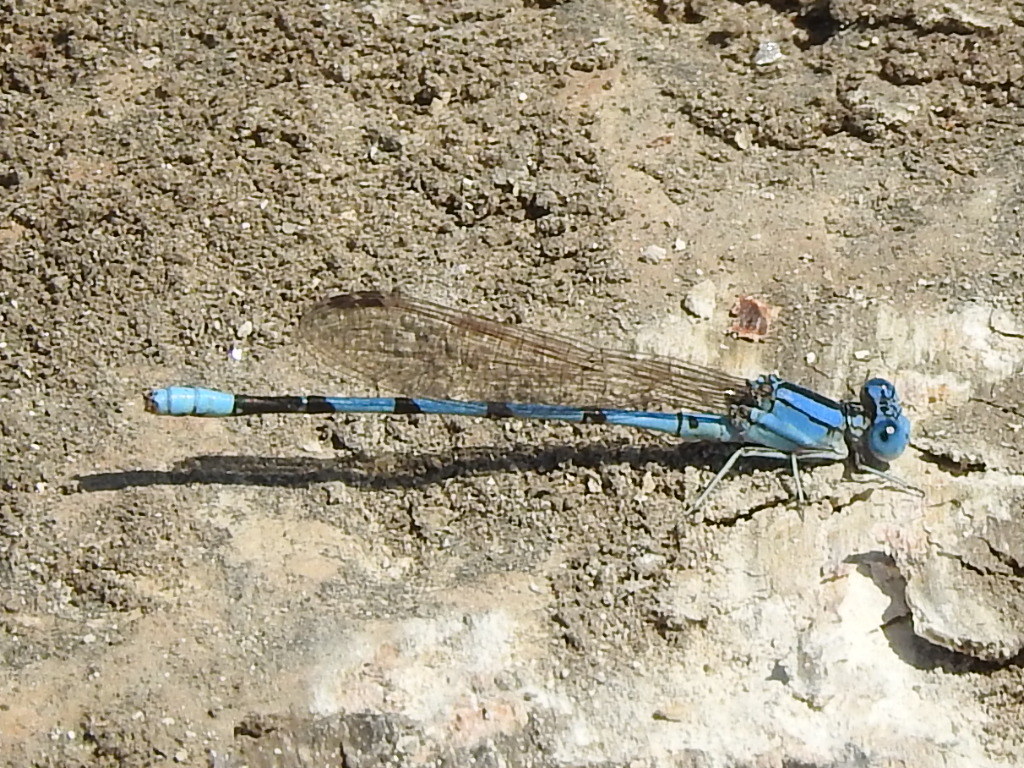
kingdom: Animalia
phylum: Arthropoda
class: Insecta
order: Odonata
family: Coenagrionidae
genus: Argia
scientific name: Argia nahuana
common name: Aztec dancer
